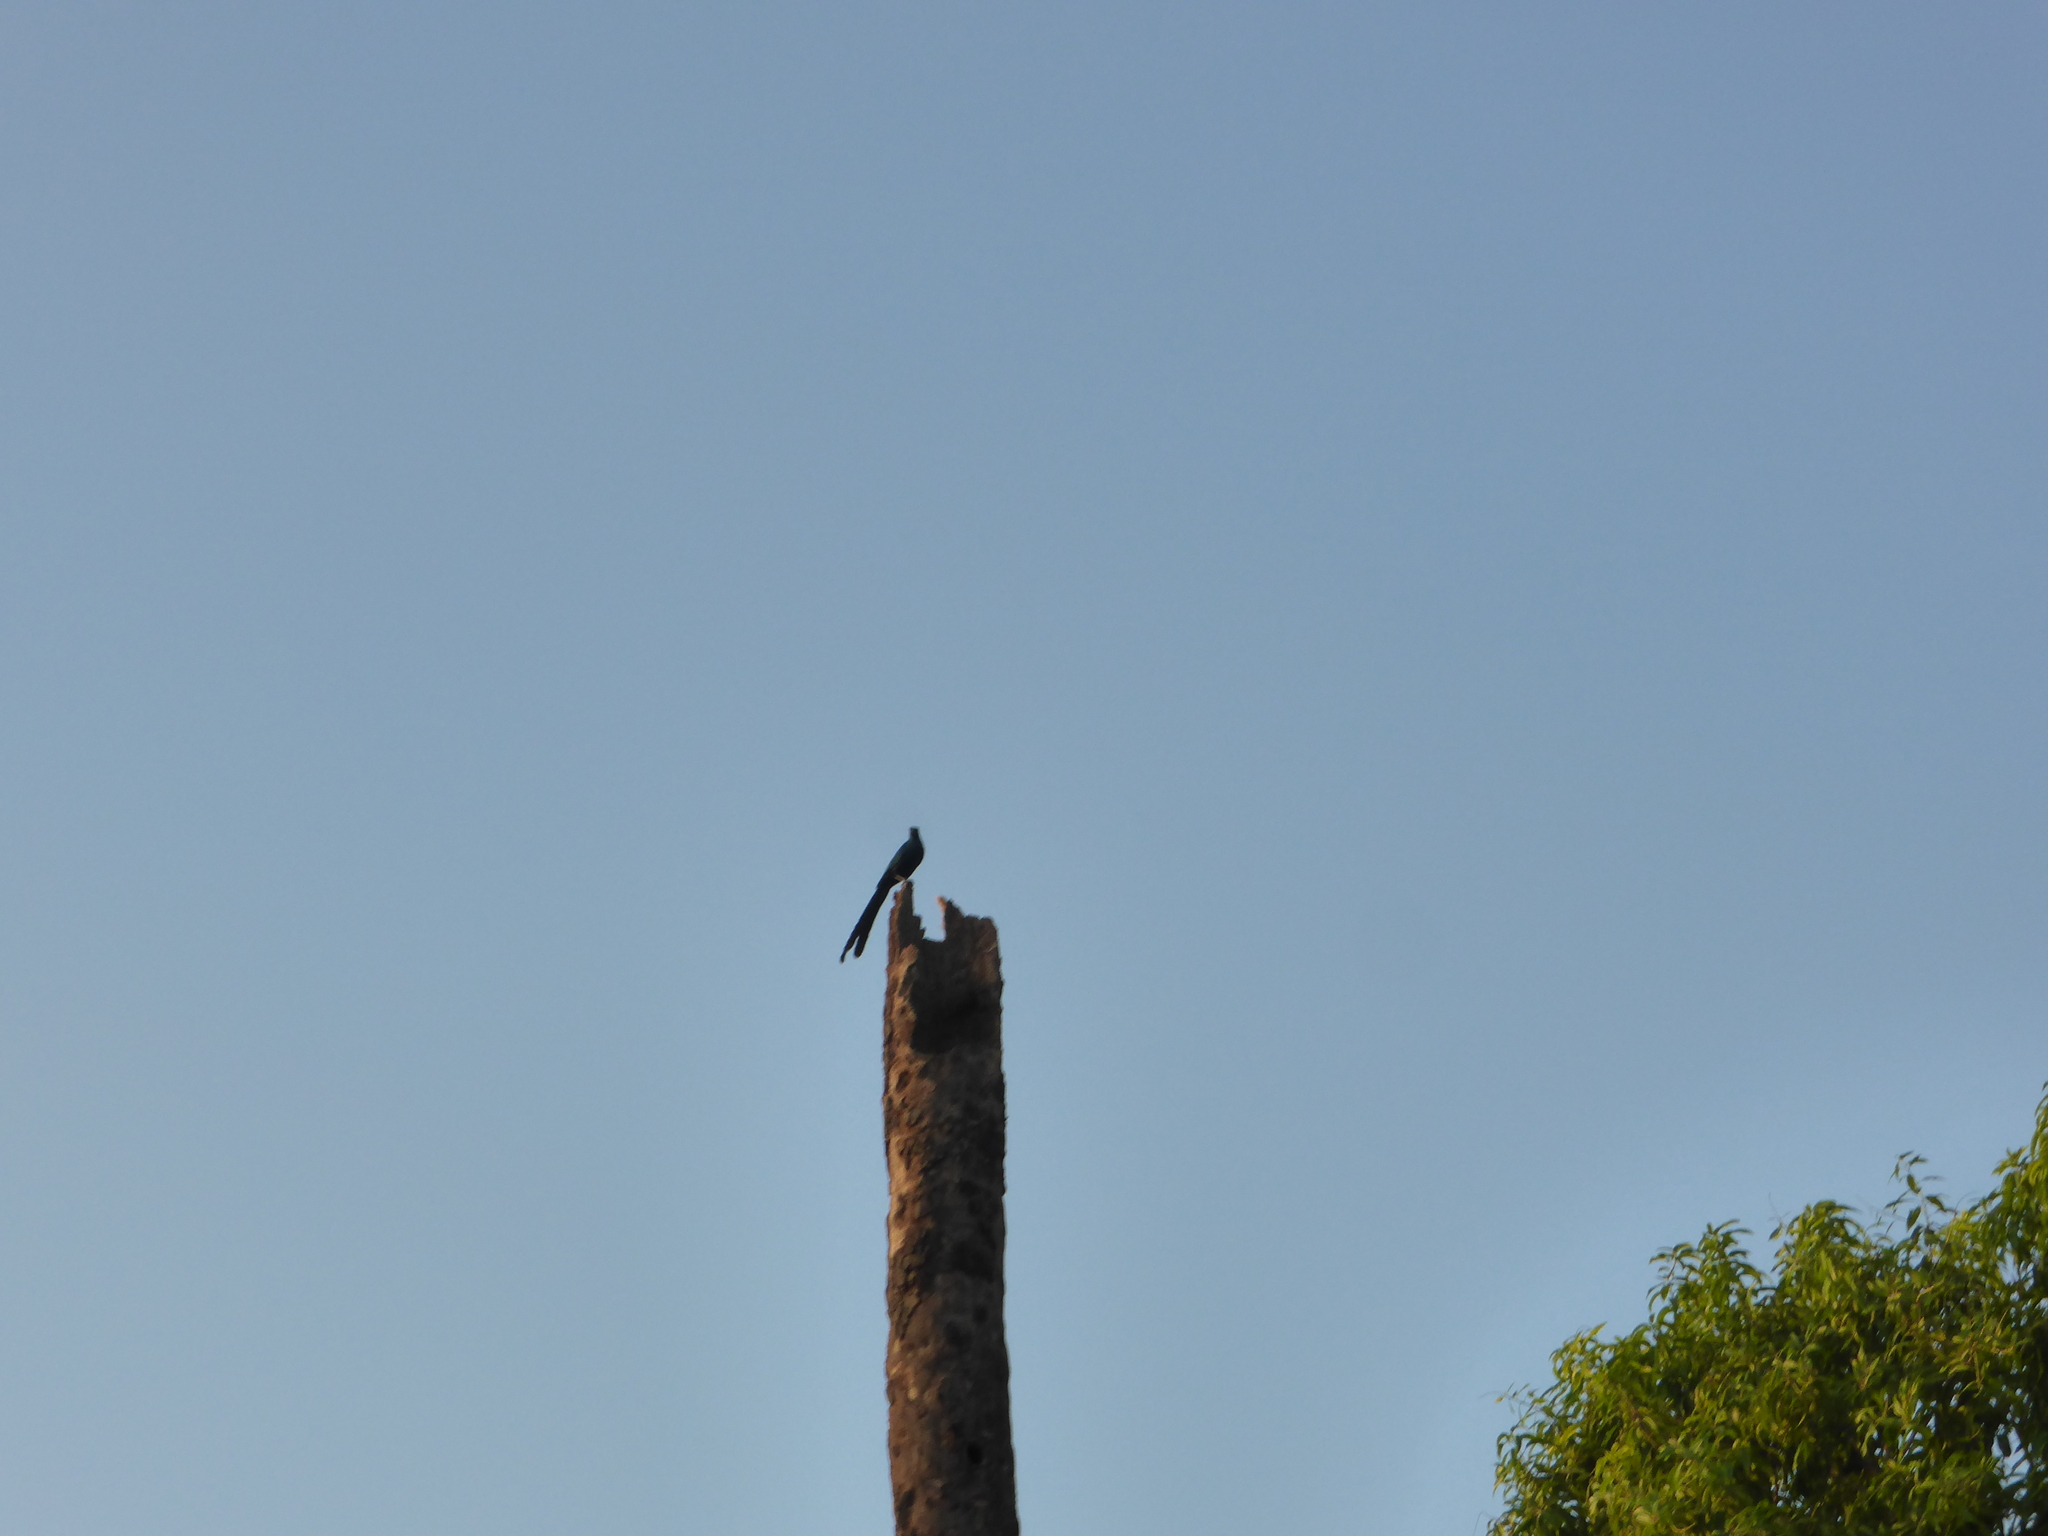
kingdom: Animalia
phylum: Chordata
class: Aves
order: Passeriformes
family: Sturnidae
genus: Lamprotornis
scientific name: Lamprotornis caudatus
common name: Long-tailed glossy starling
